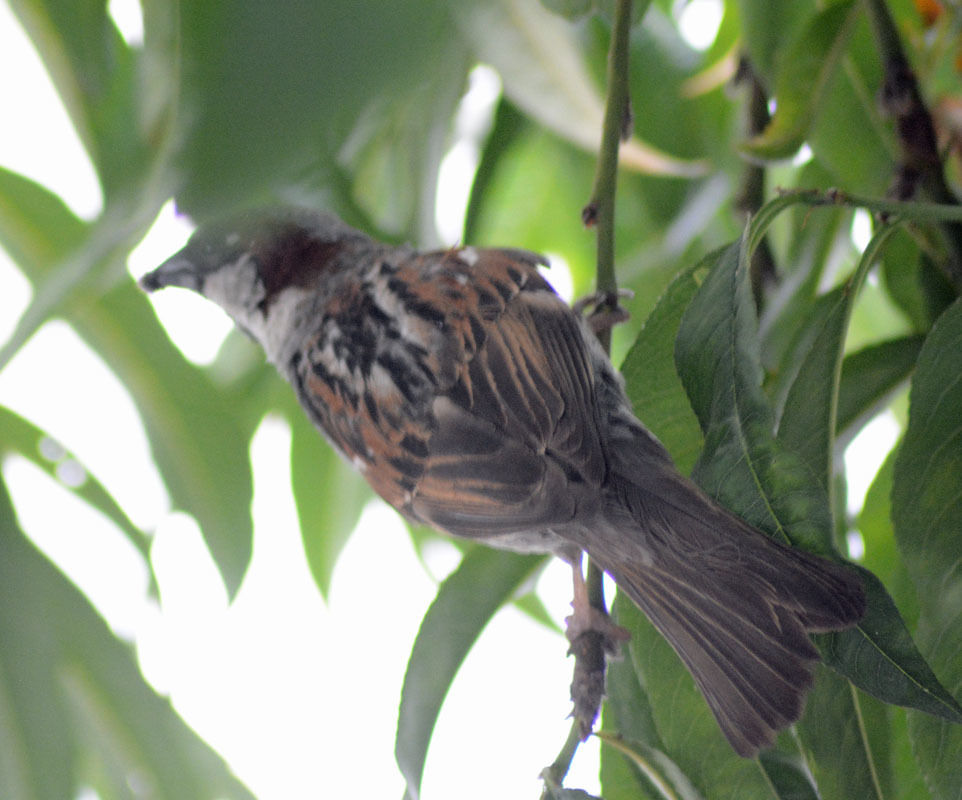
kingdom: Animalia
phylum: Chordata
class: Aves
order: Passeriformes
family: Passeridae
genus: Passer
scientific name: Passer domesticus
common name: House sparrow
